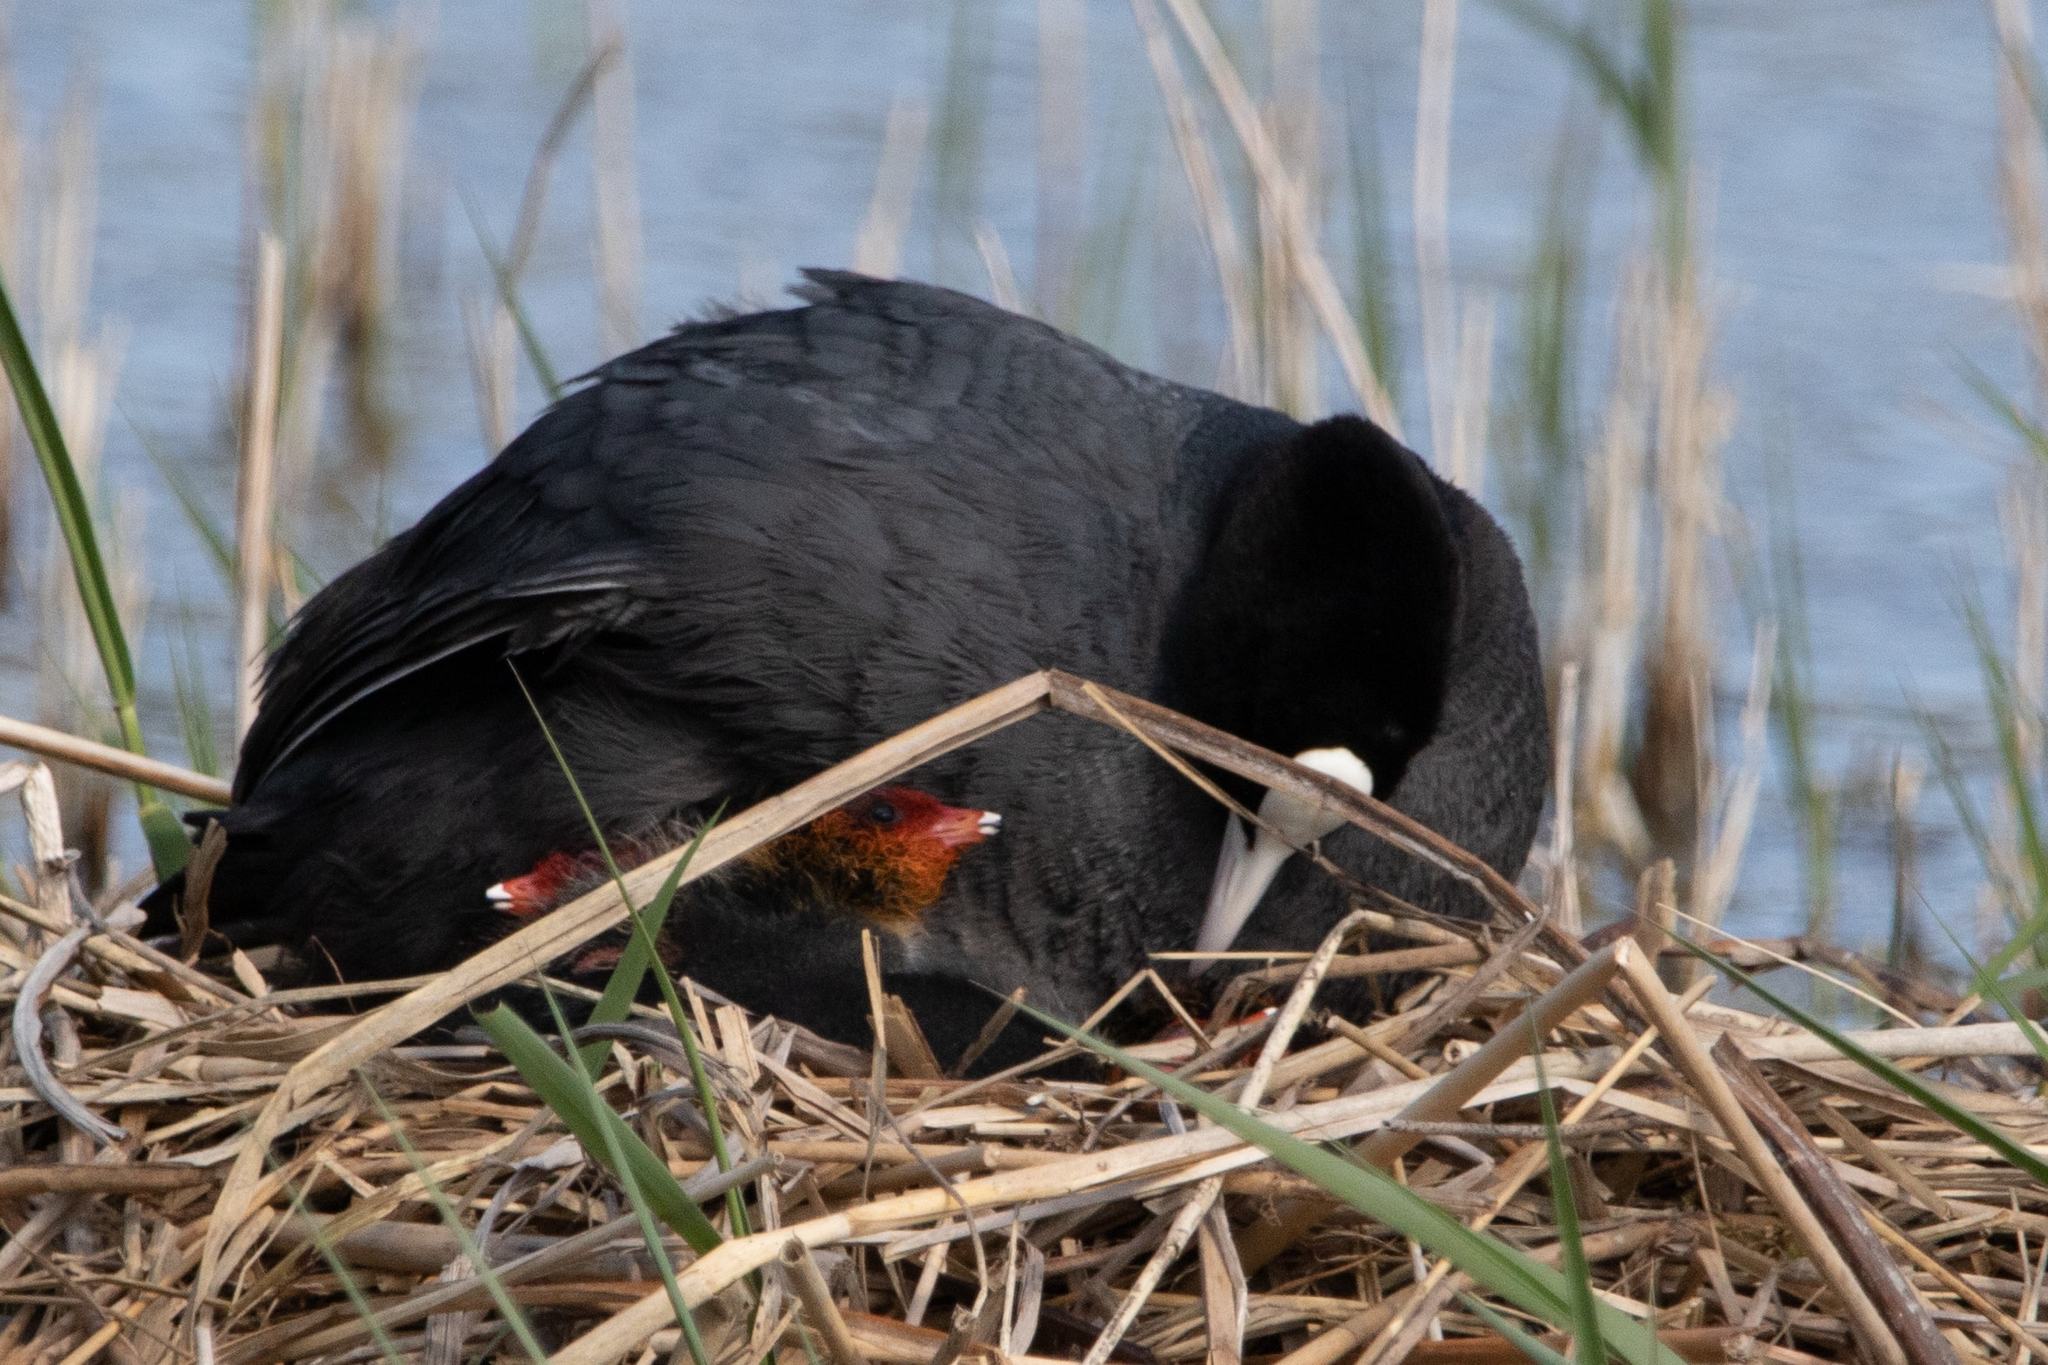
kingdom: Animalia
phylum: Chordata
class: Aves
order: Gruiformes
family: Rallidae
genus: Fulica
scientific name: Fulica atra
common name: Eurasian coot
